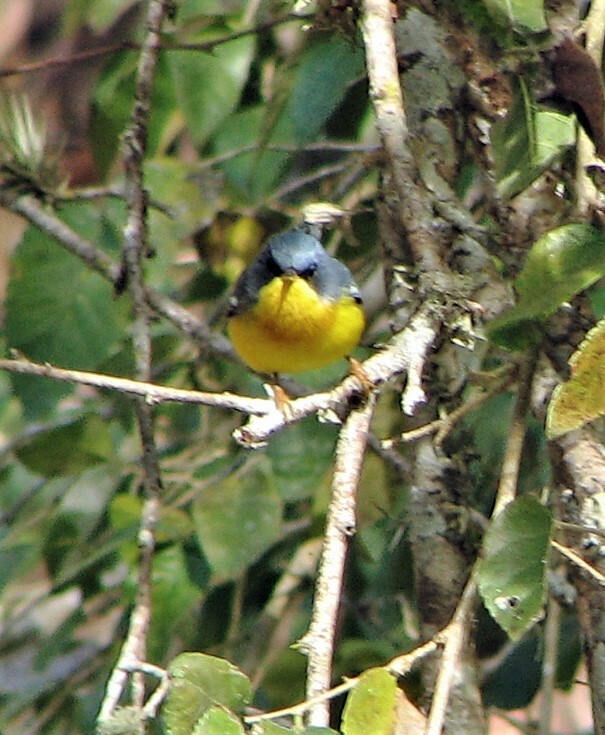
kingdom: Animalia
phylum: Chordata
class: Aves
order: Passeriformes
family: Parulidae
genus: Setophaga
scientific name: Setophaga pitiayumi
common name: Tropical parula
